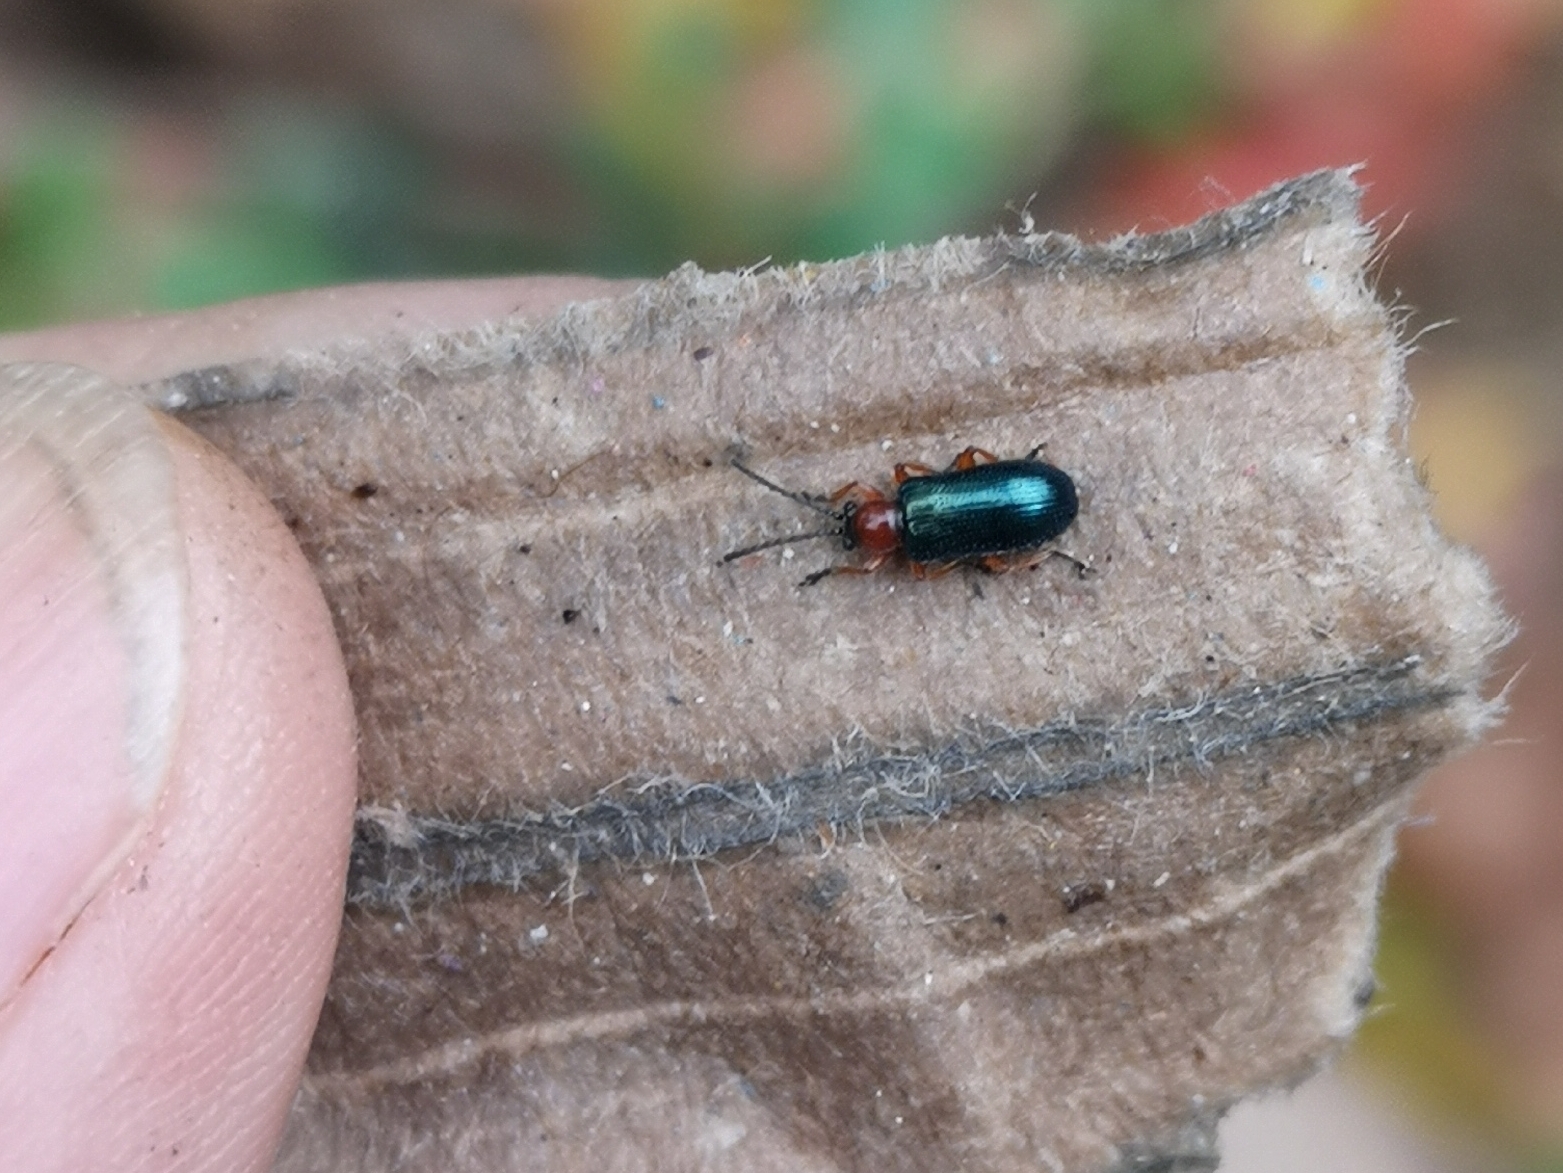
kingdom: Animalia
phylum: Arthropoda
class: Insecta
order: Coleoptera
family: Chrysomelidae
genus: Oulema
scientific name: Oulema
